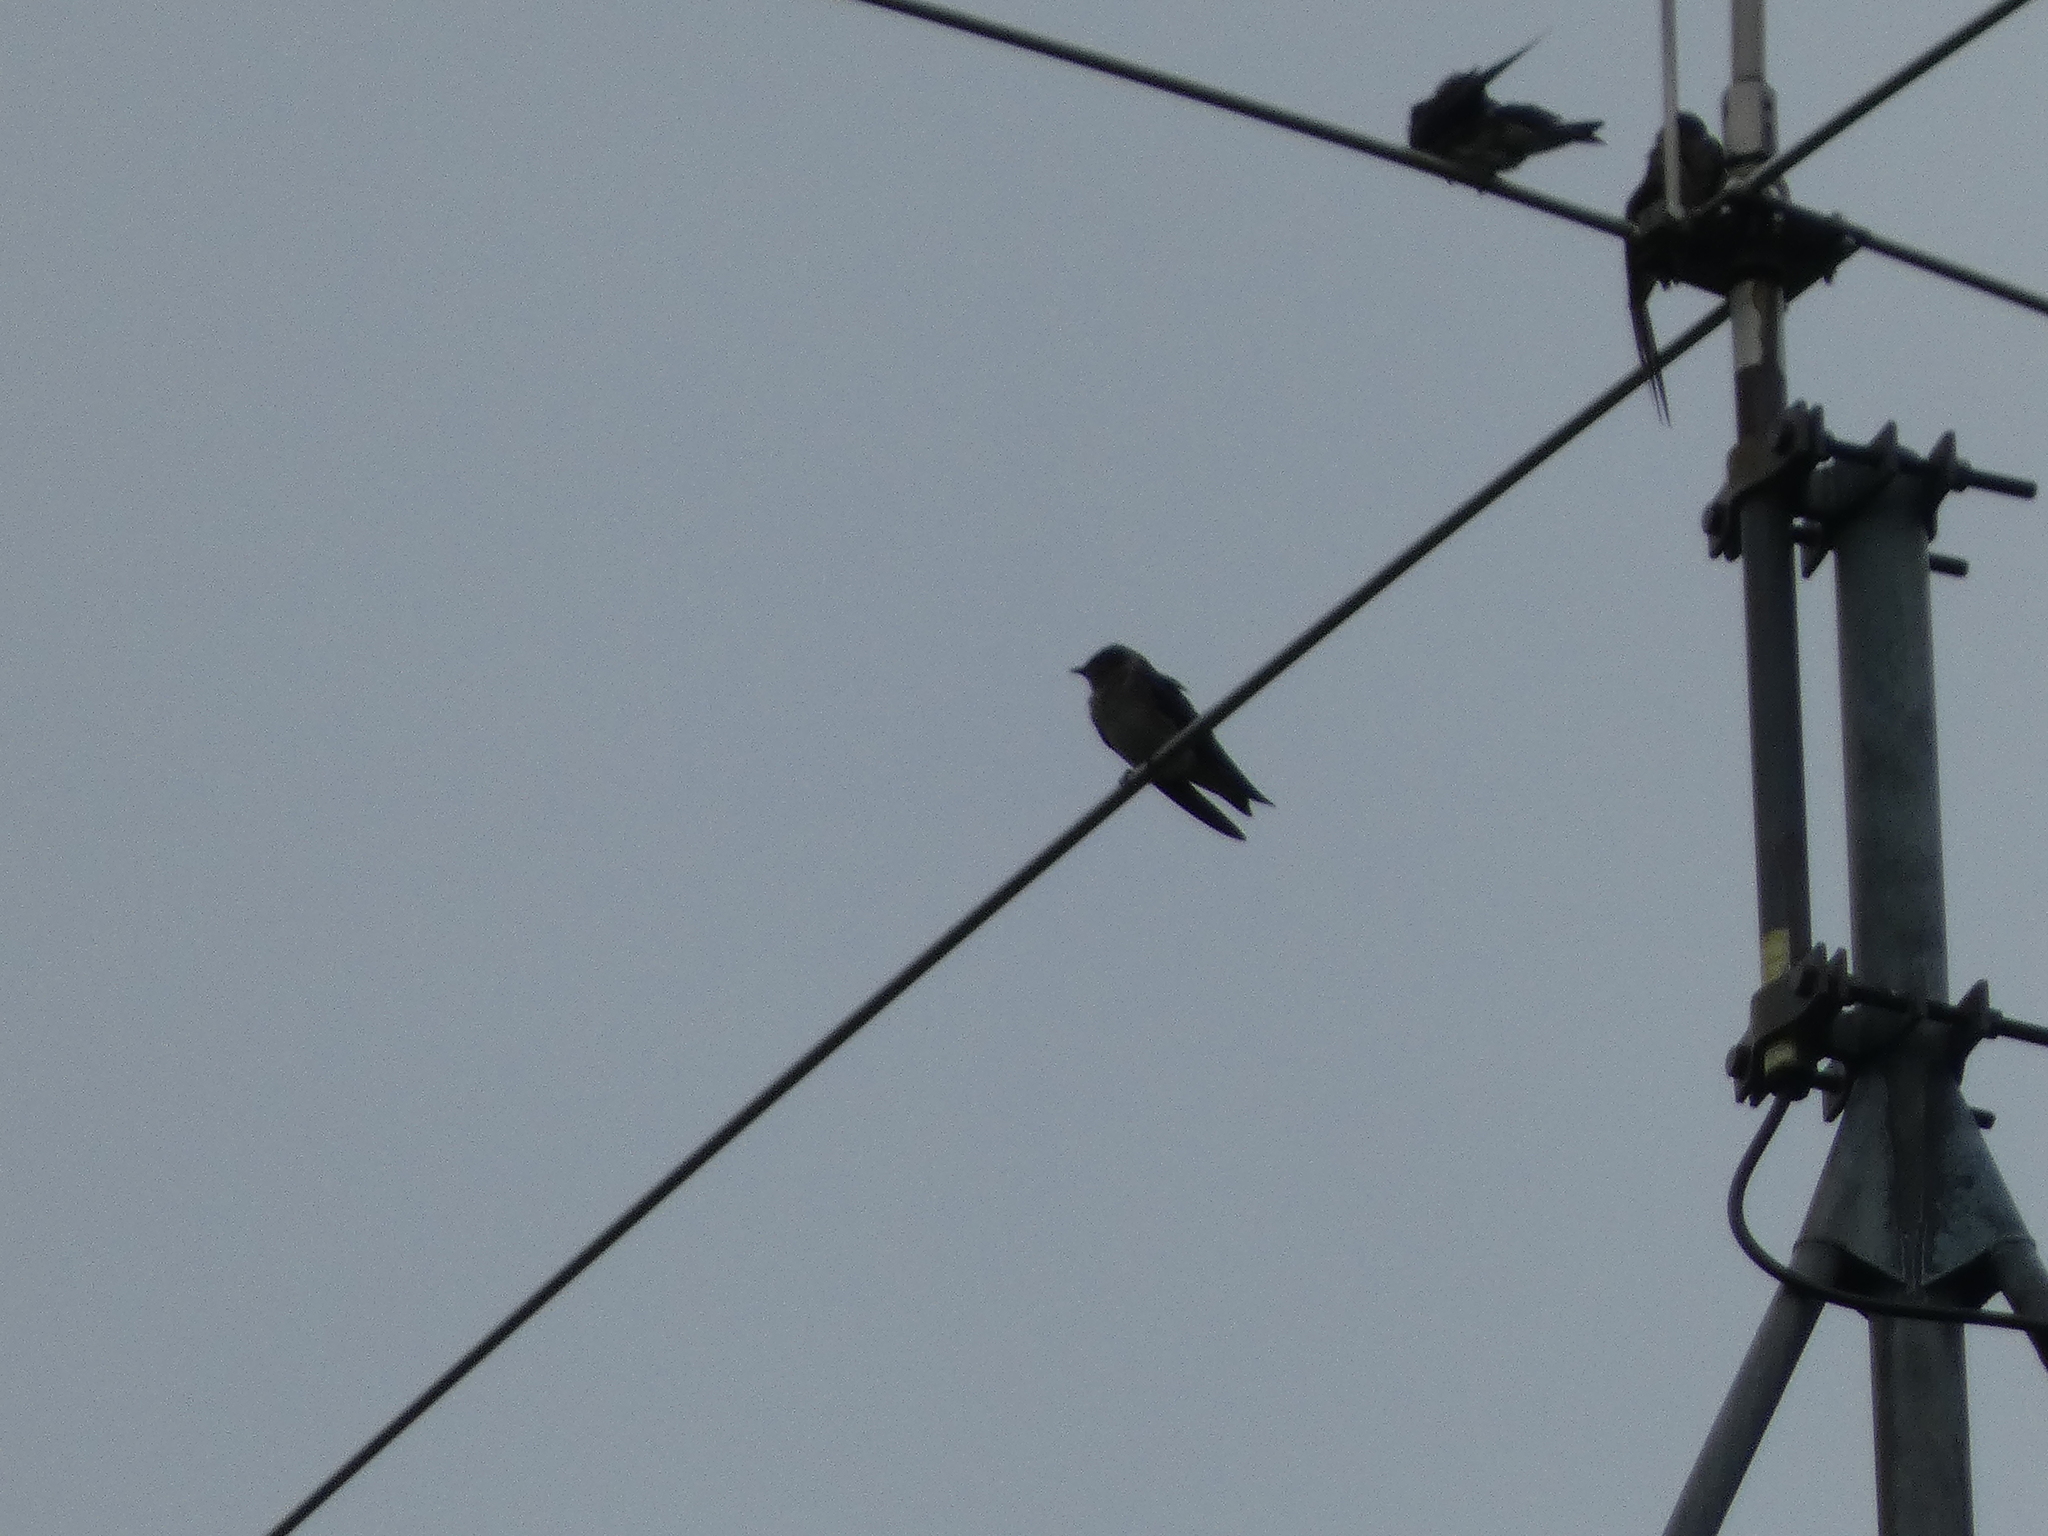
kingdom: Animalia
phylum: Chordata
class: Aves
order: Passeriformes
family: Hirundinidae
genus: Progne
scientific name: Progne subis
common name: Purple martin
